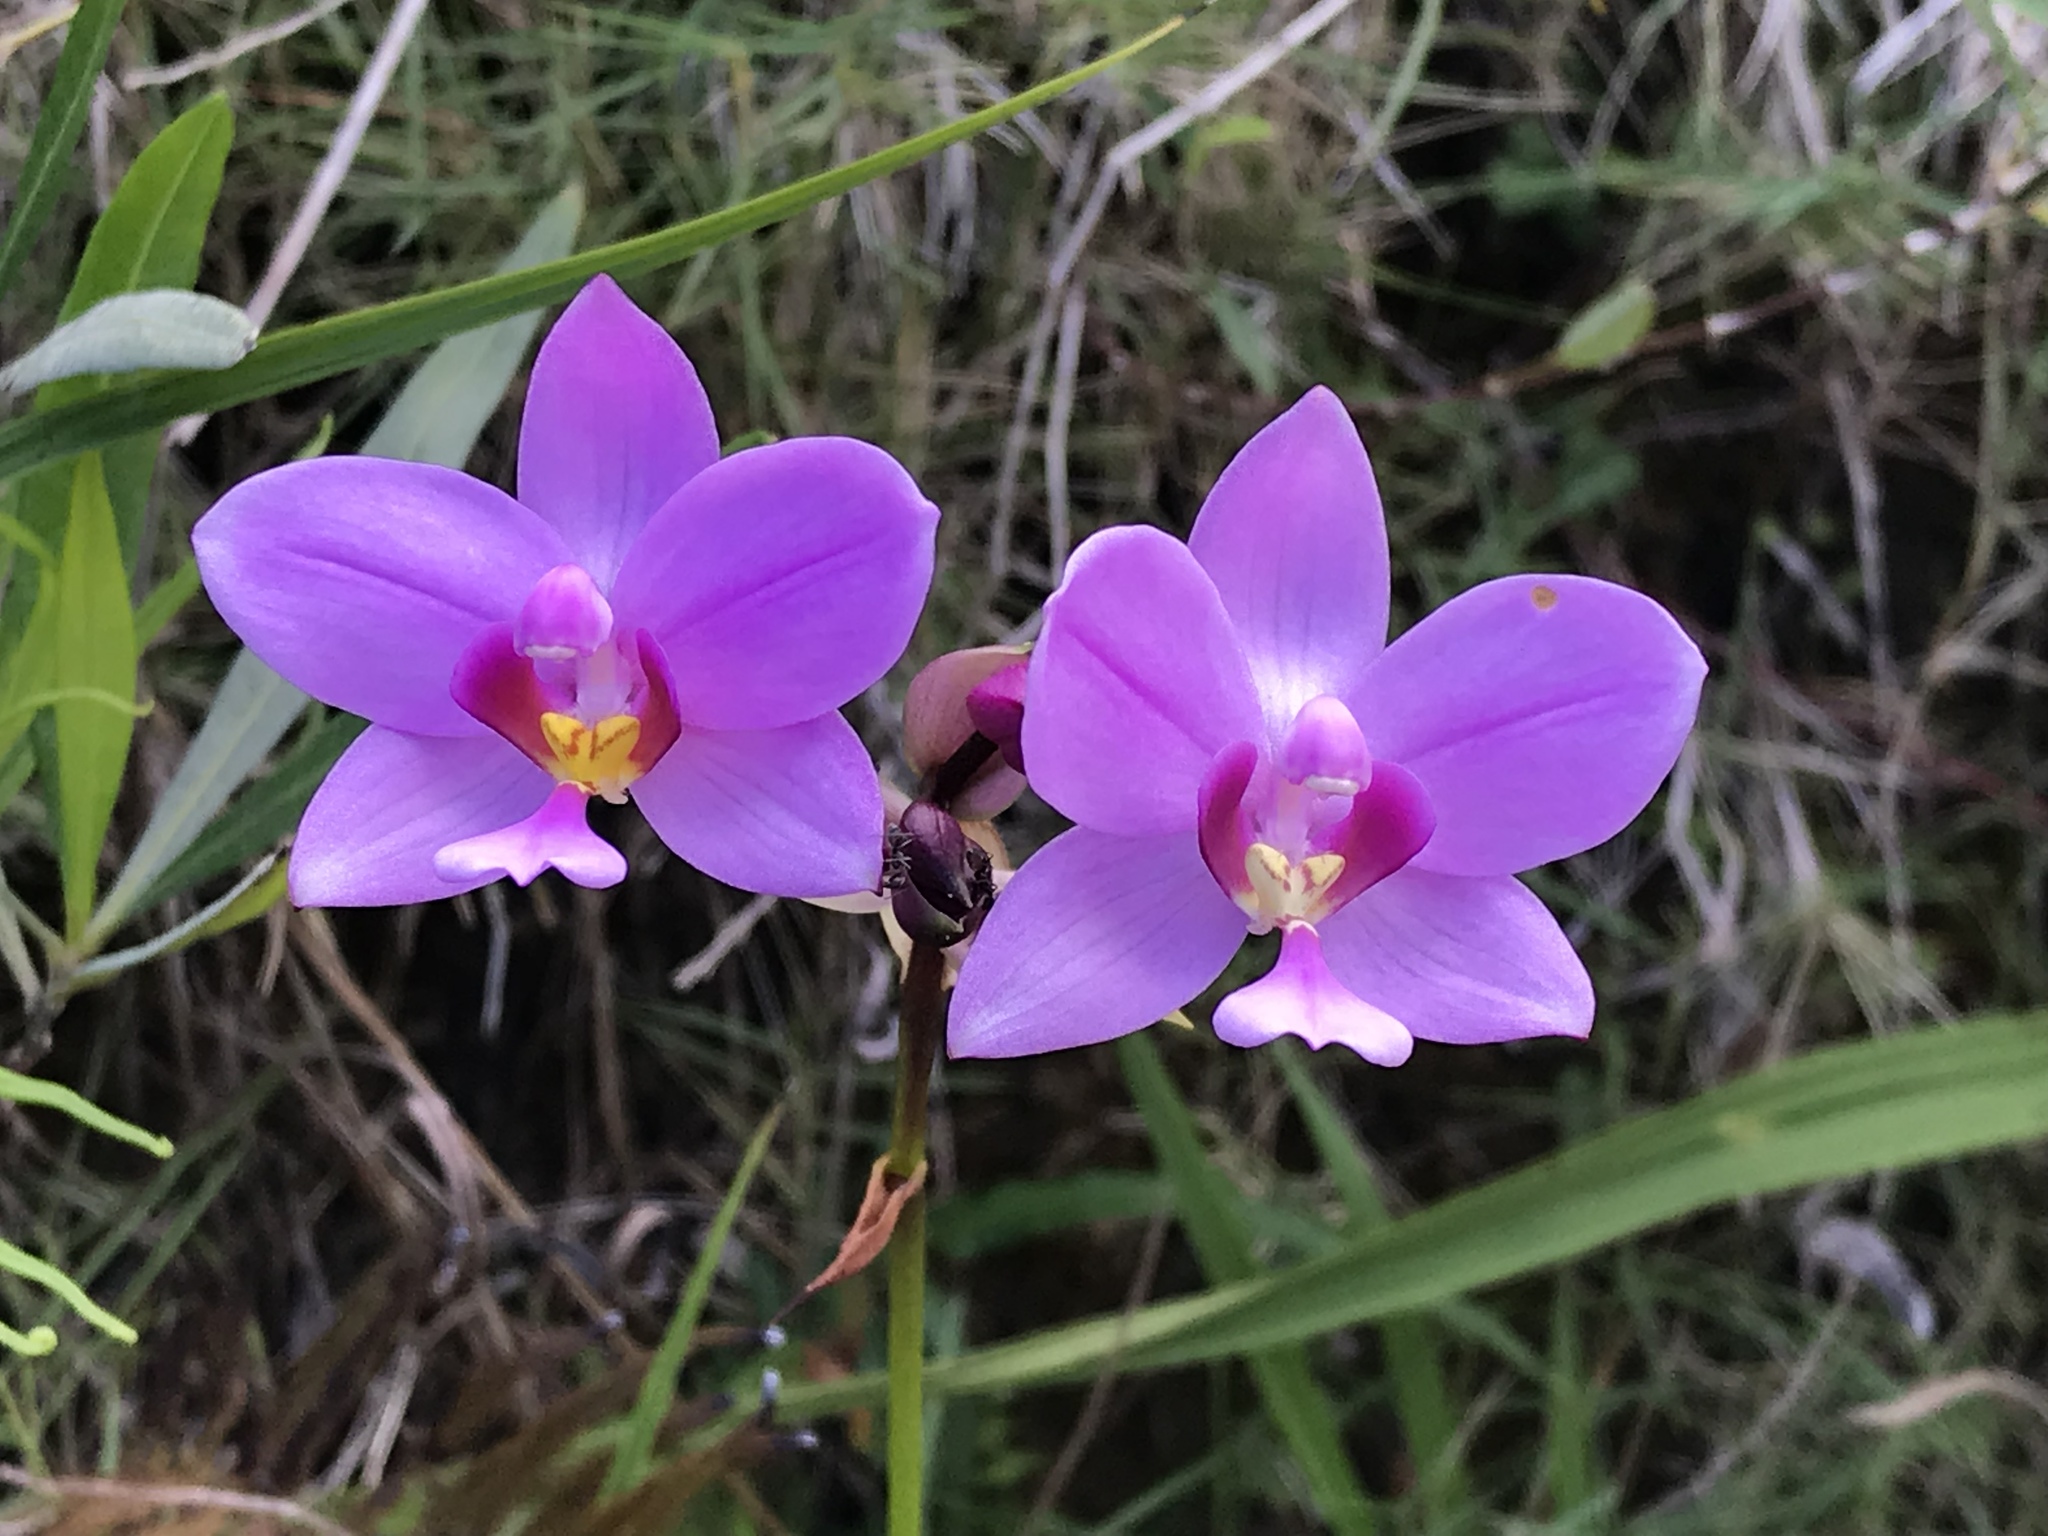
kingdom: Plantae
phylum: Tracheophyta
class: Liliopsida
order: Asparagales
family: Orchidaceae
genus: Spathoglottis
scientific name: Spathoglottis plicata
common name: Philippine ground orchid
